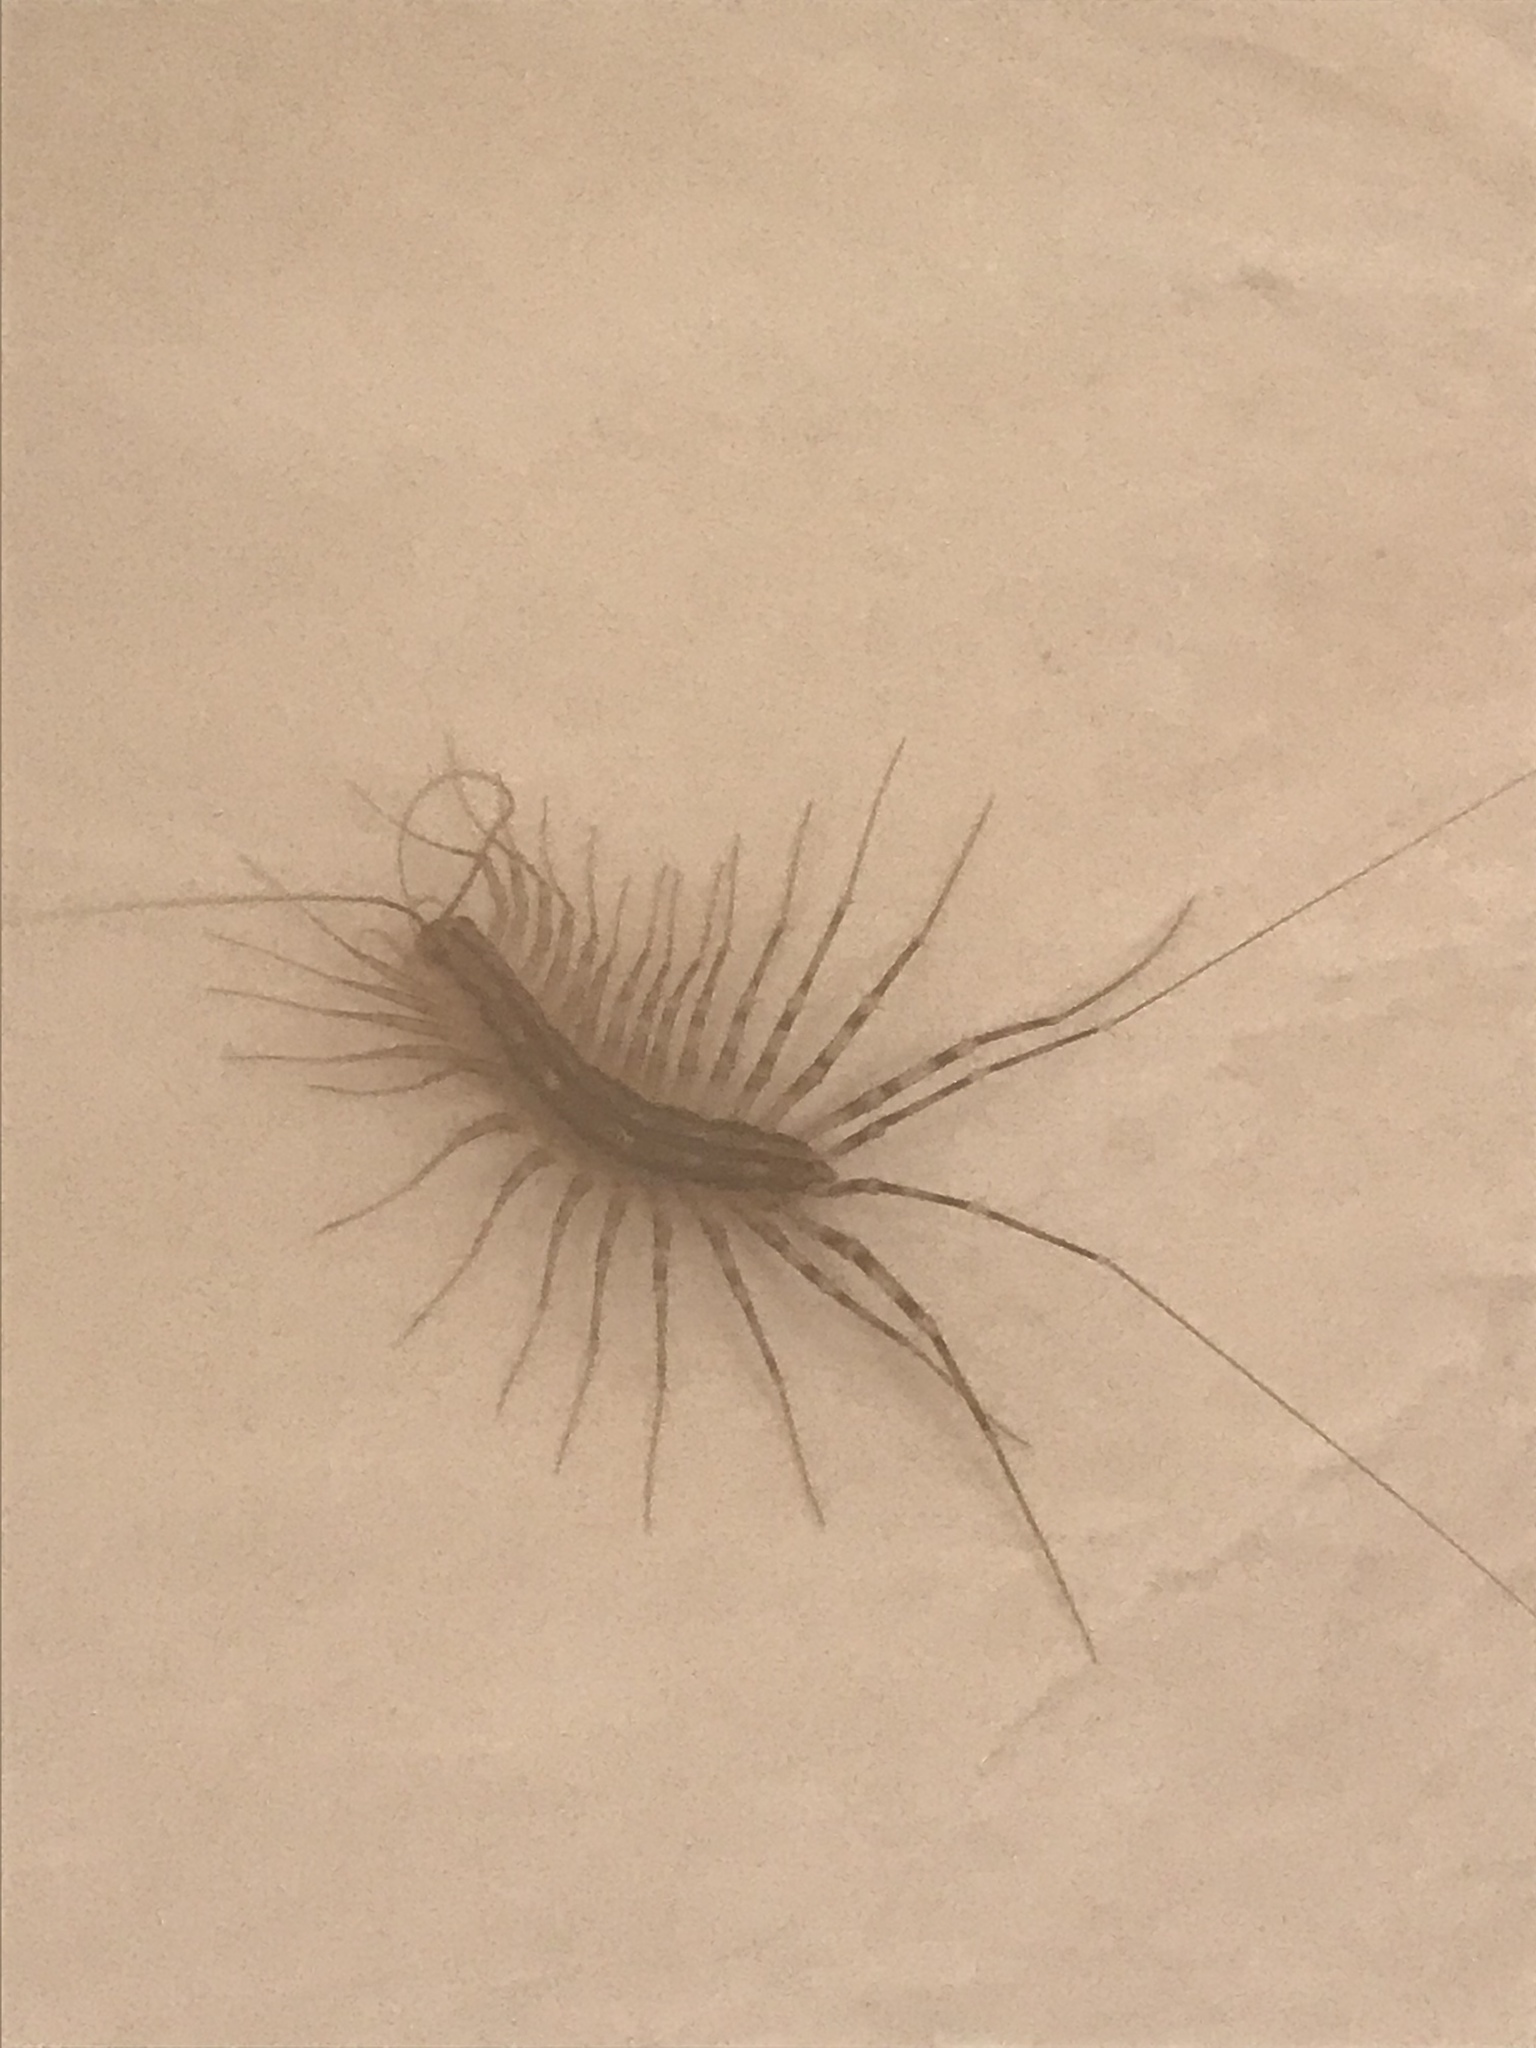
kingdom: Animalia
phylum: Arthropoda
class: Chilopoda
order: Scutigeromorpha
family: Scutigeridae
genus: Scutigera
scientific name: Scutigera coleoptrata
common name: House centipede
